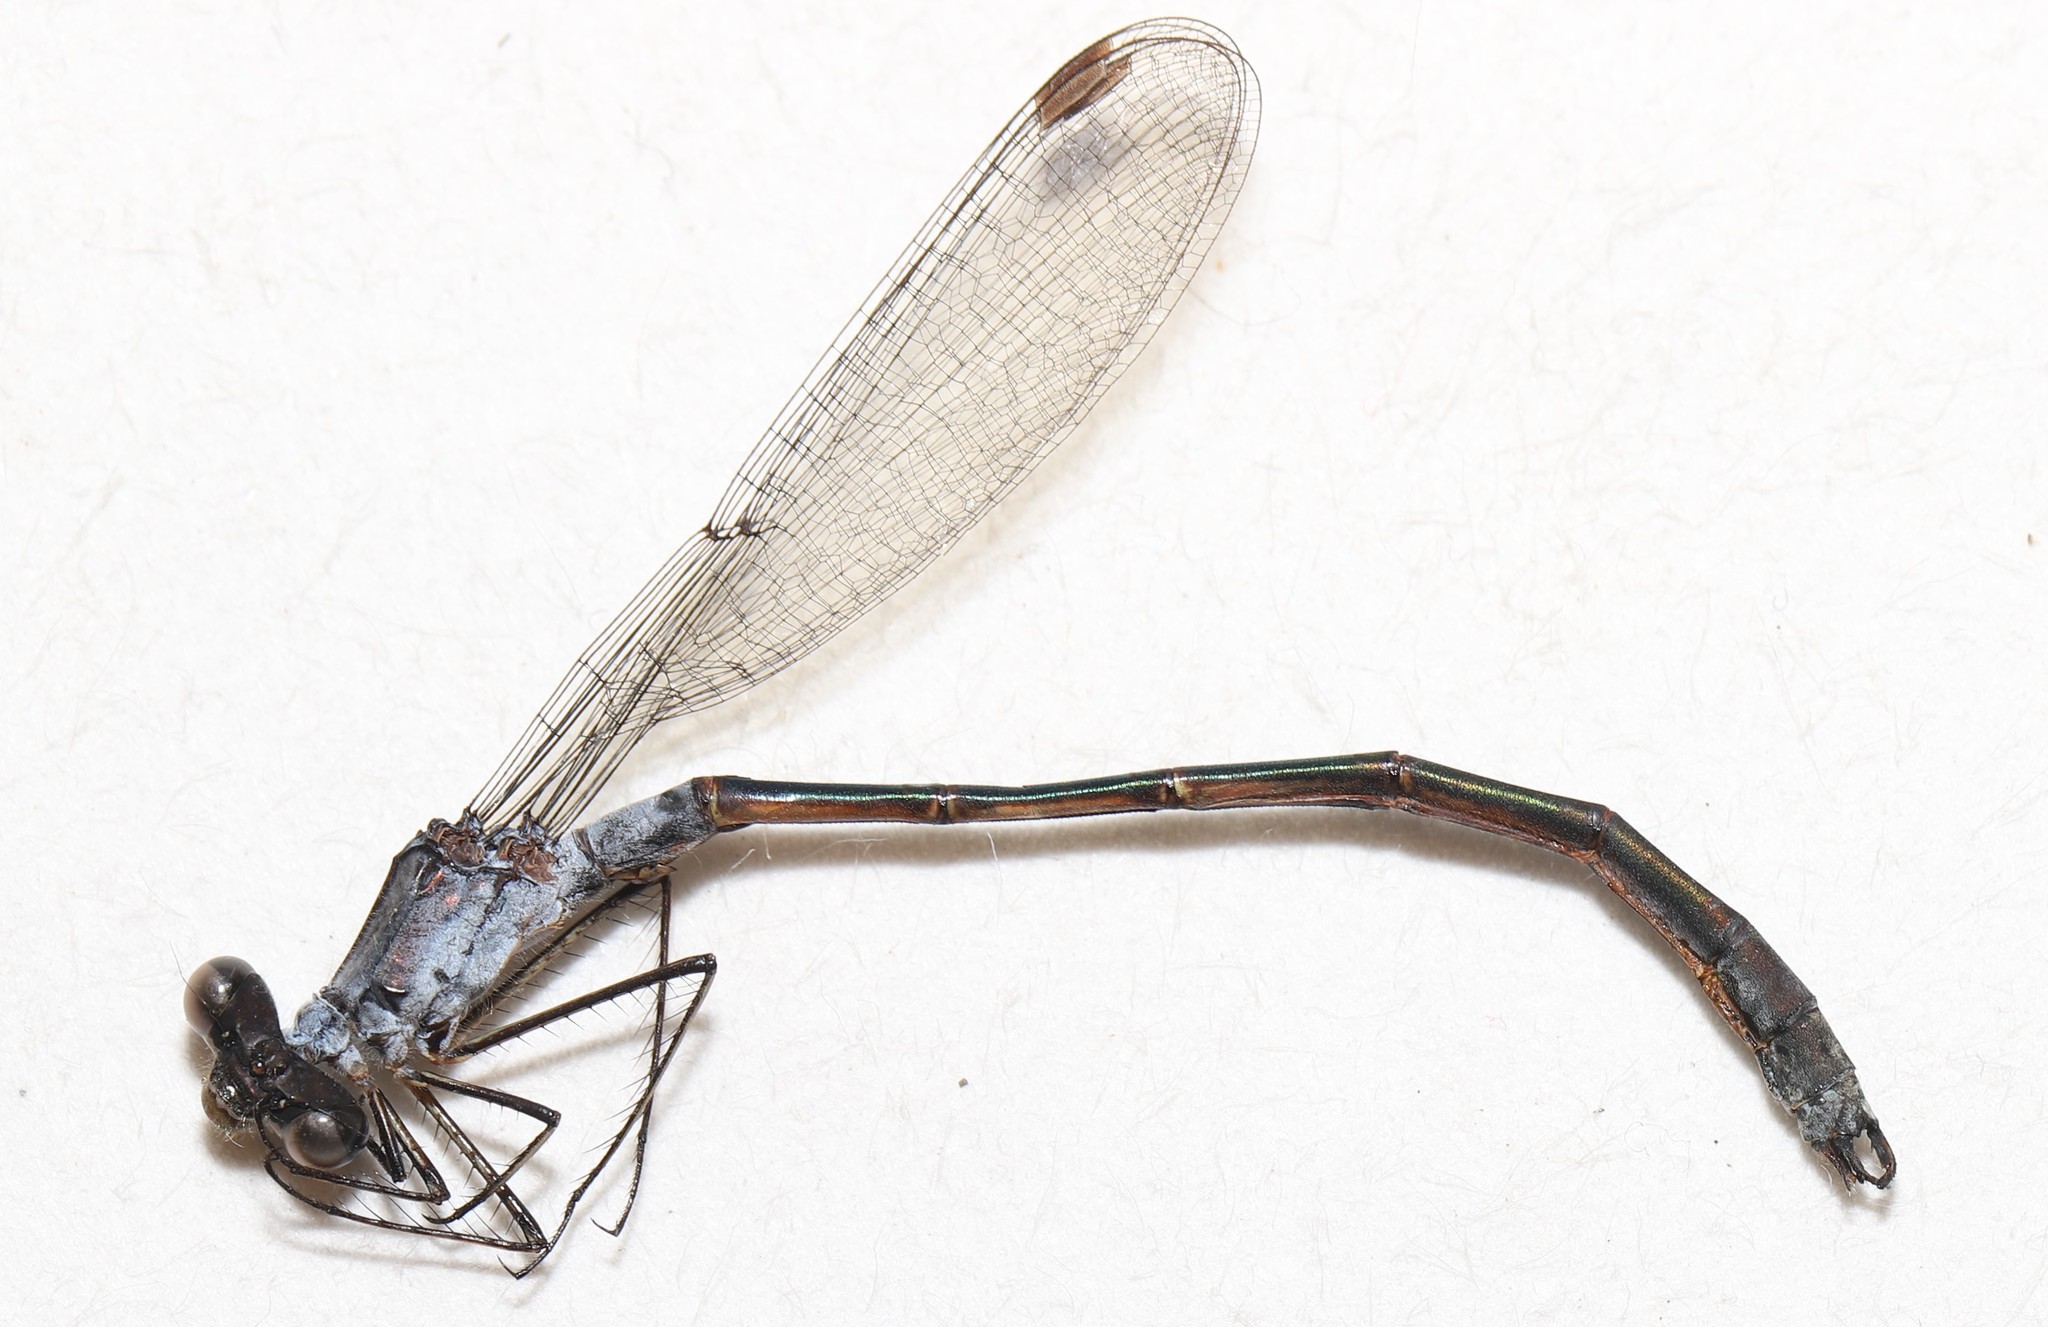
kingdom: Animalia
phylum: Arthropoda
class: Insecta
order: Odonata
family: Lestidae
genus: Lestes
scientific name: Lestes forcipatus
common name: Sweetflag spreadwing
